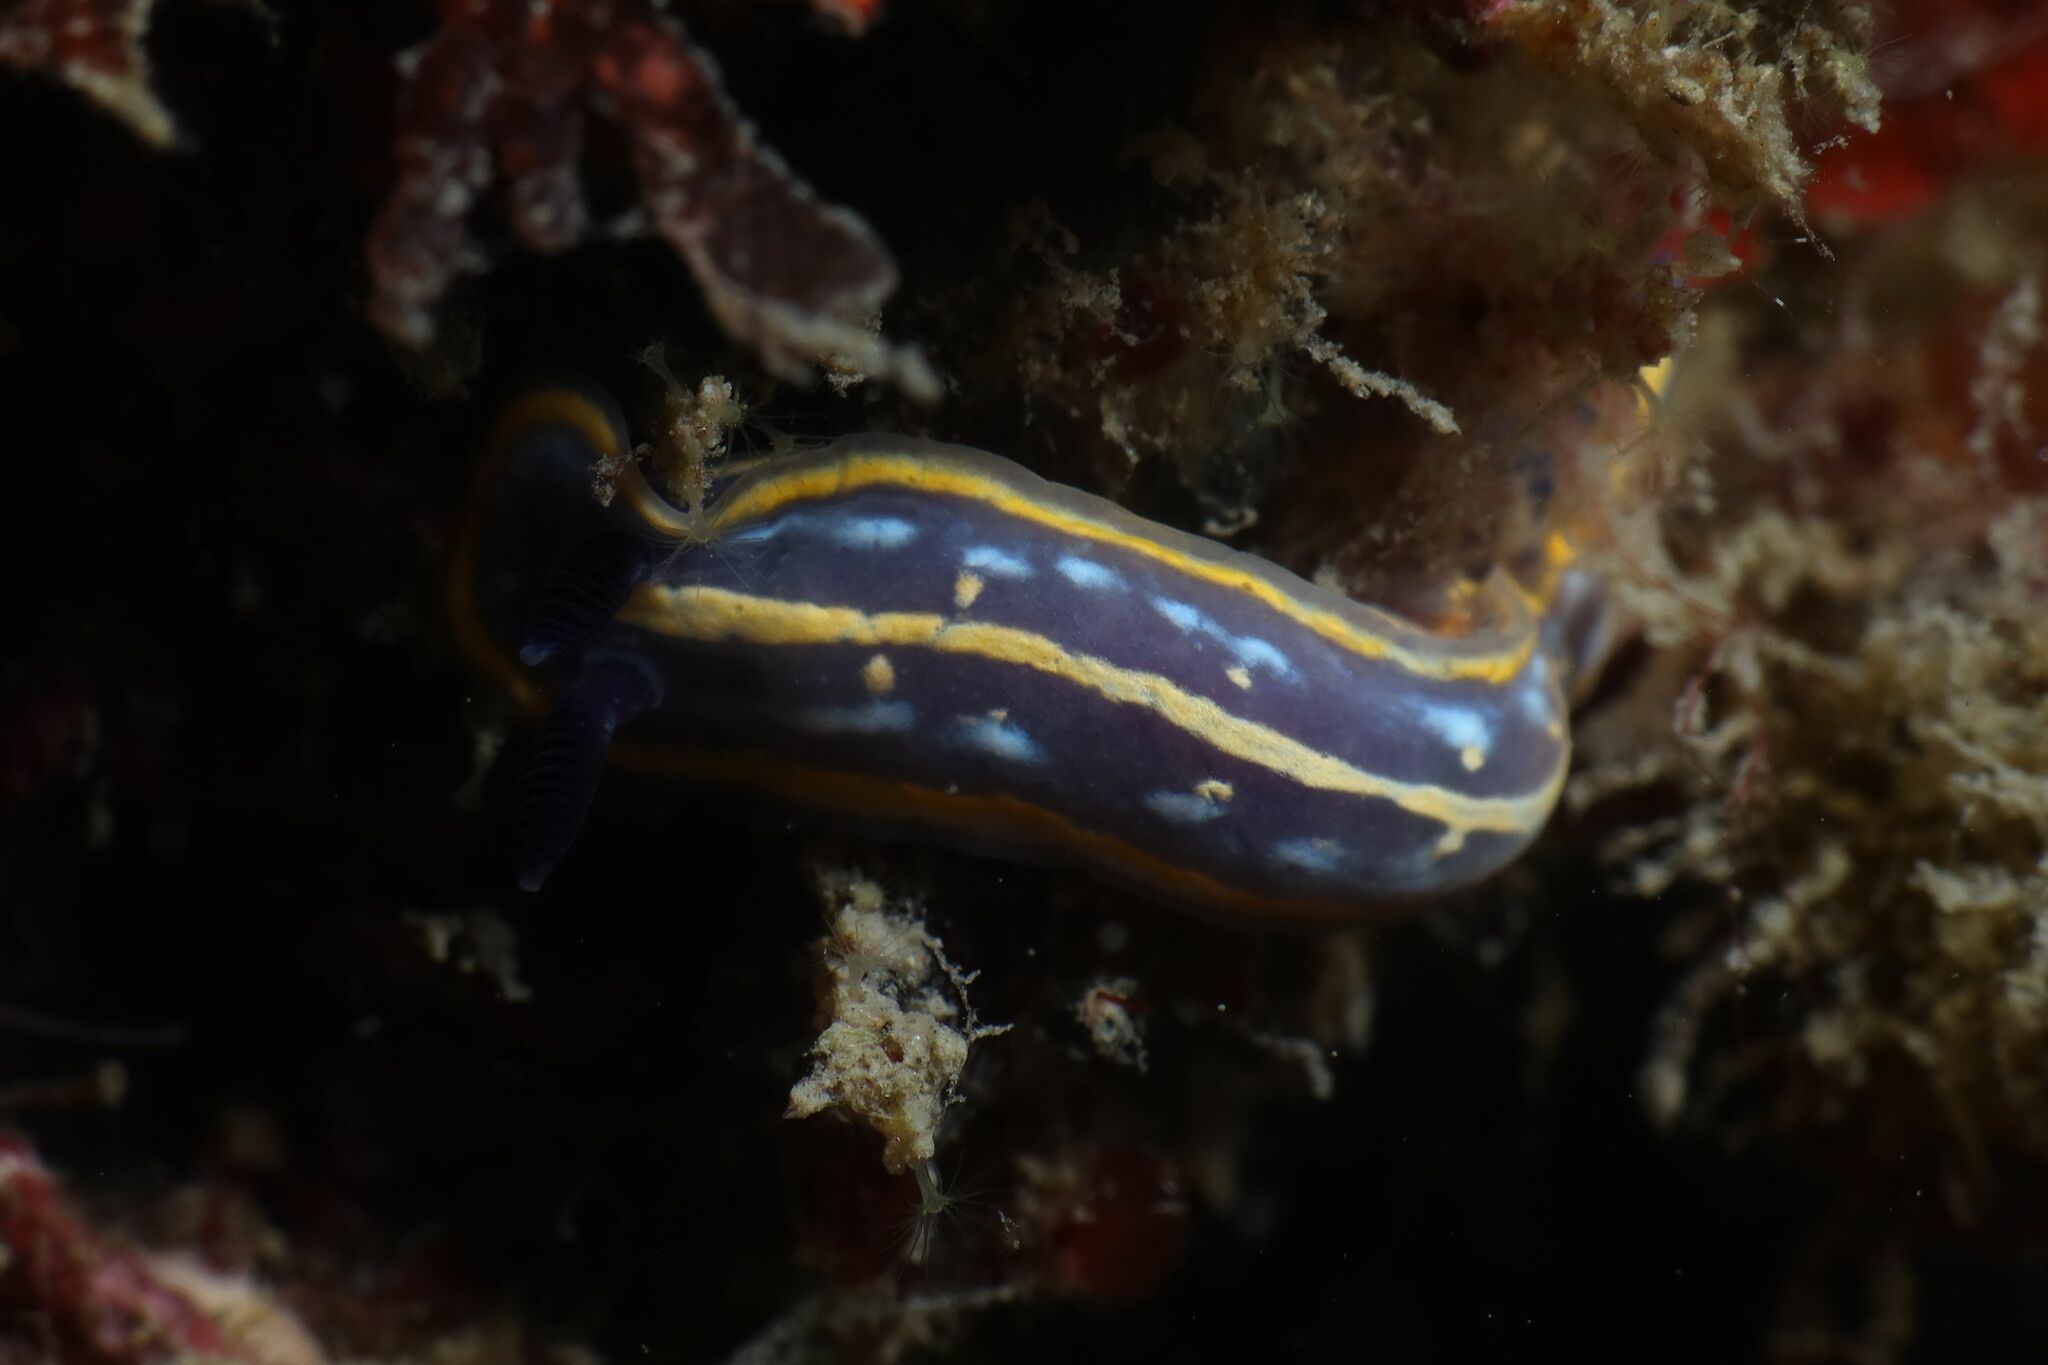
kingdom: Animalia
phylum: Mollusca
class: Gastropoda
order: Nudibranchia
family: Chromodorididae
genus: Felimare
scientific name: Felimare tricolor
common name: Tricolor doris
